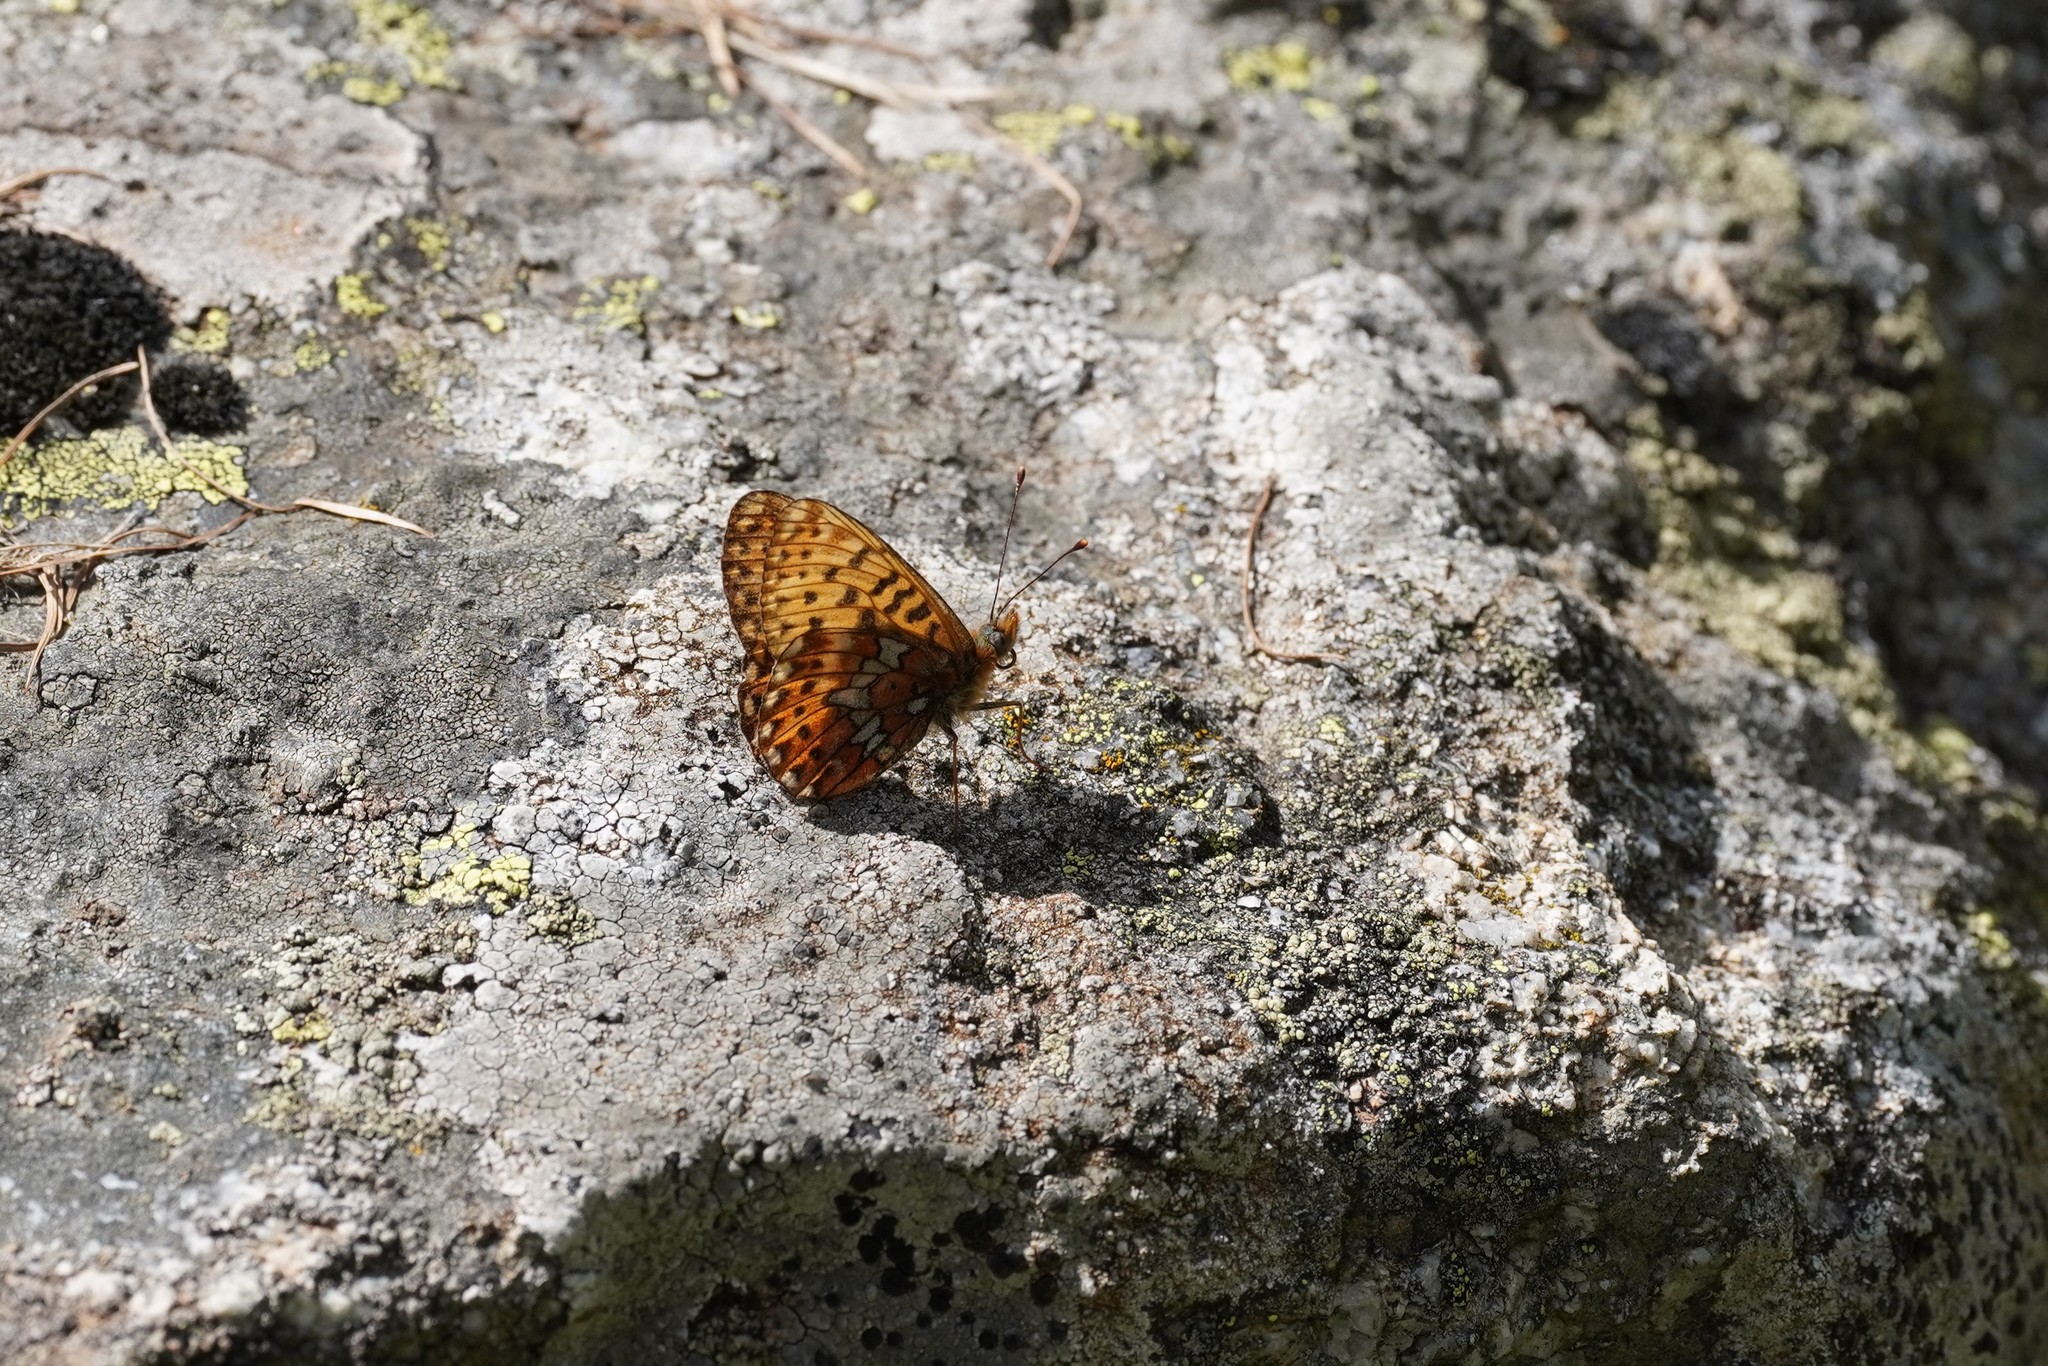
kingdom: Animalia
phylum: Arthropoda
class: Insecta
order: Lepidoptera
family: Nymphalidae
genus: Clossiana
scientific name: Clossiana euphrosyne
